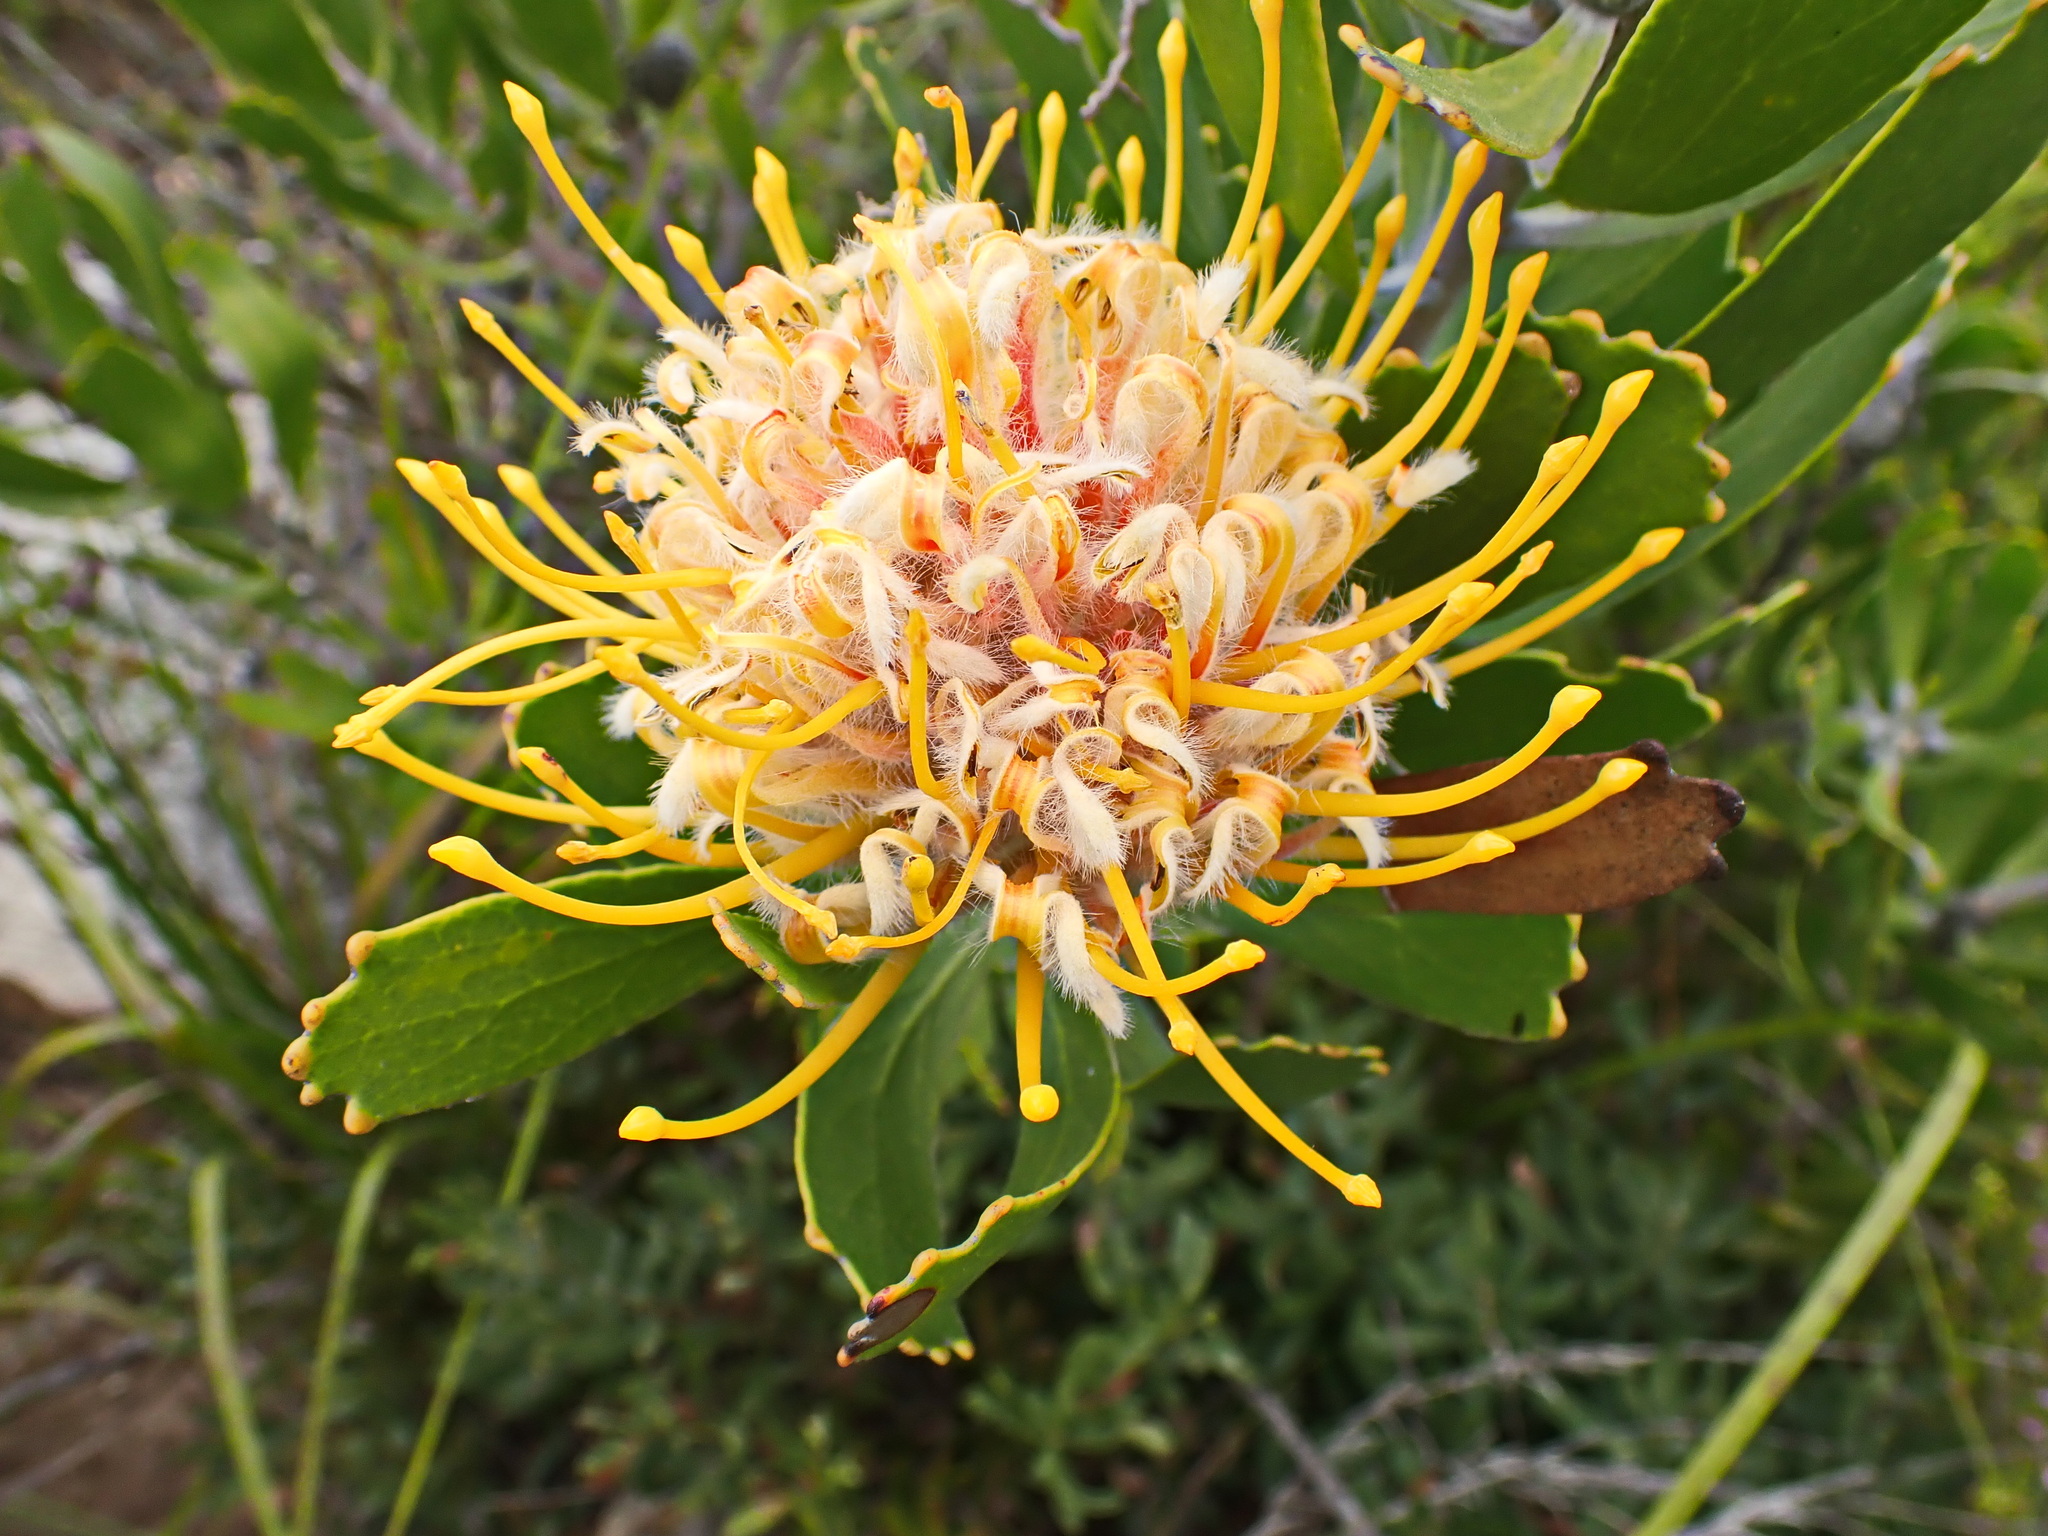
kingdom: Plantae
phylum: Tracheophyta
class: Magnoliopsida
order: Proteales
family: Proteaceae
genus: Leucospermum
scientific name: Leucospermum cuneiforme
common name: Common pincushion
